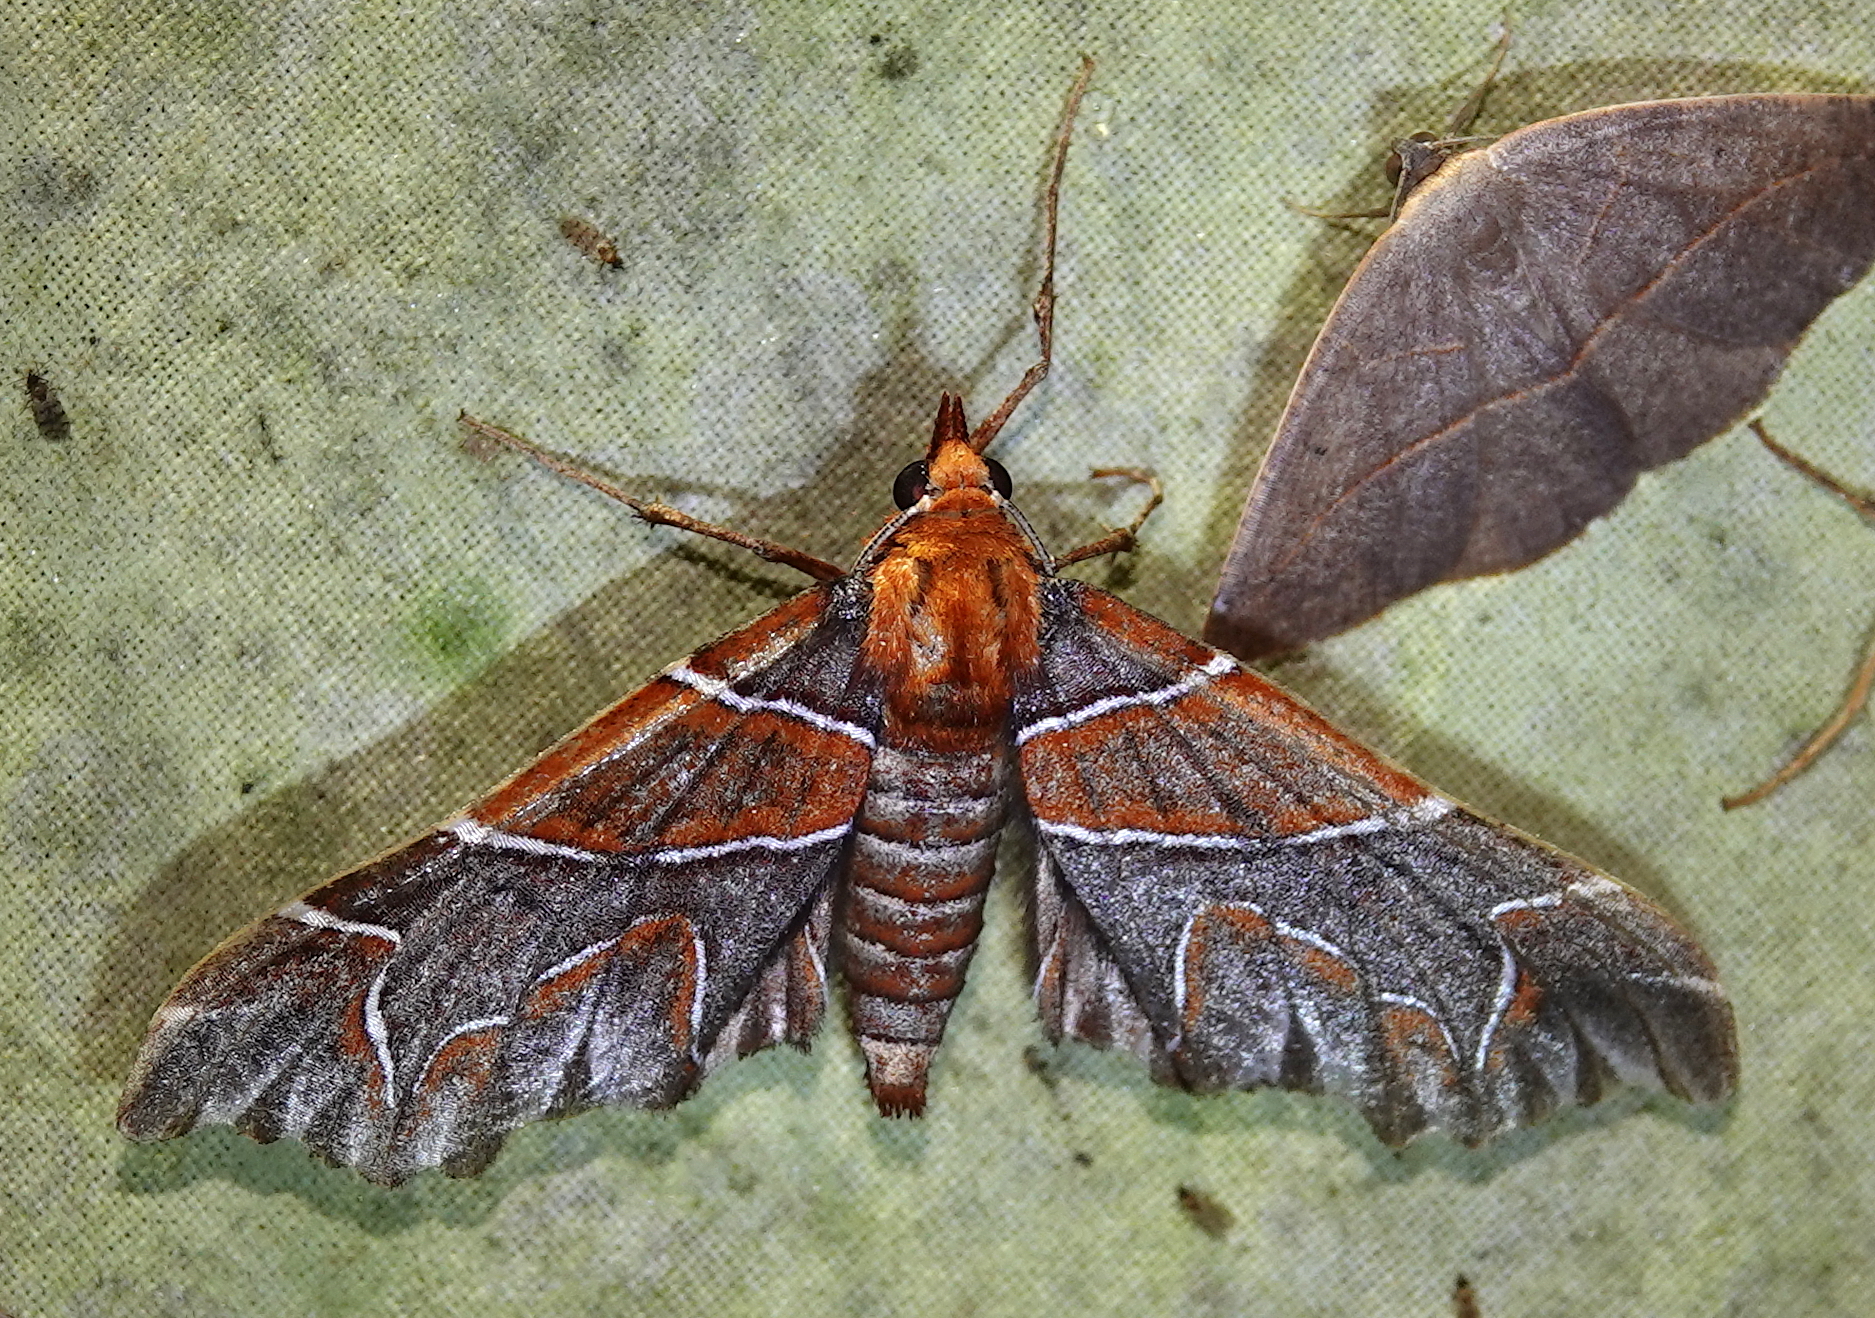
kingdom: Animalia
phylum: Arthropoda
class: Insecta
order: Lepidoptera
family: Geometridae
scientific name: Geometridae
